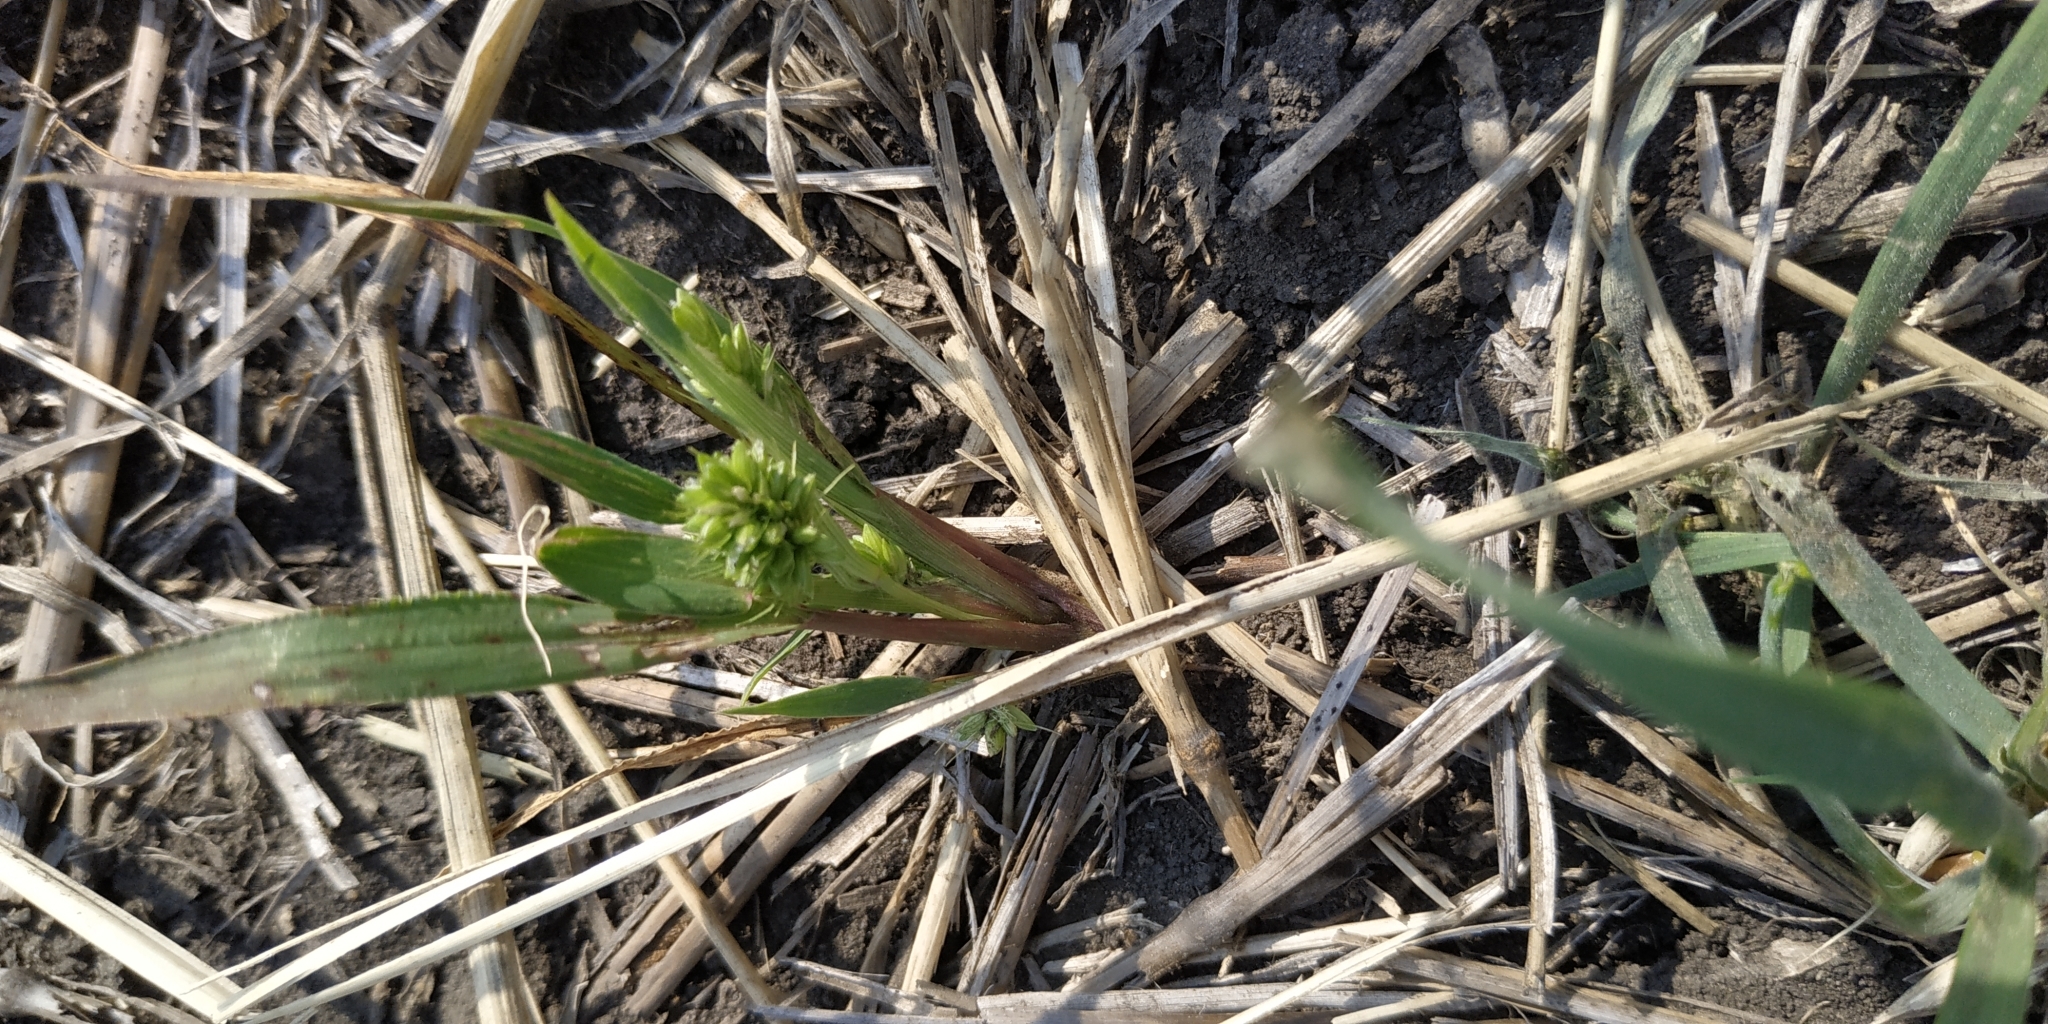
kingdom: Plantae
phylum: Tracheophyta
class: Liliopsida
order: Poales
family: Poaceae
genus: Setaria
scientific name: Setaria viridis
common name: Green bristlegrass
